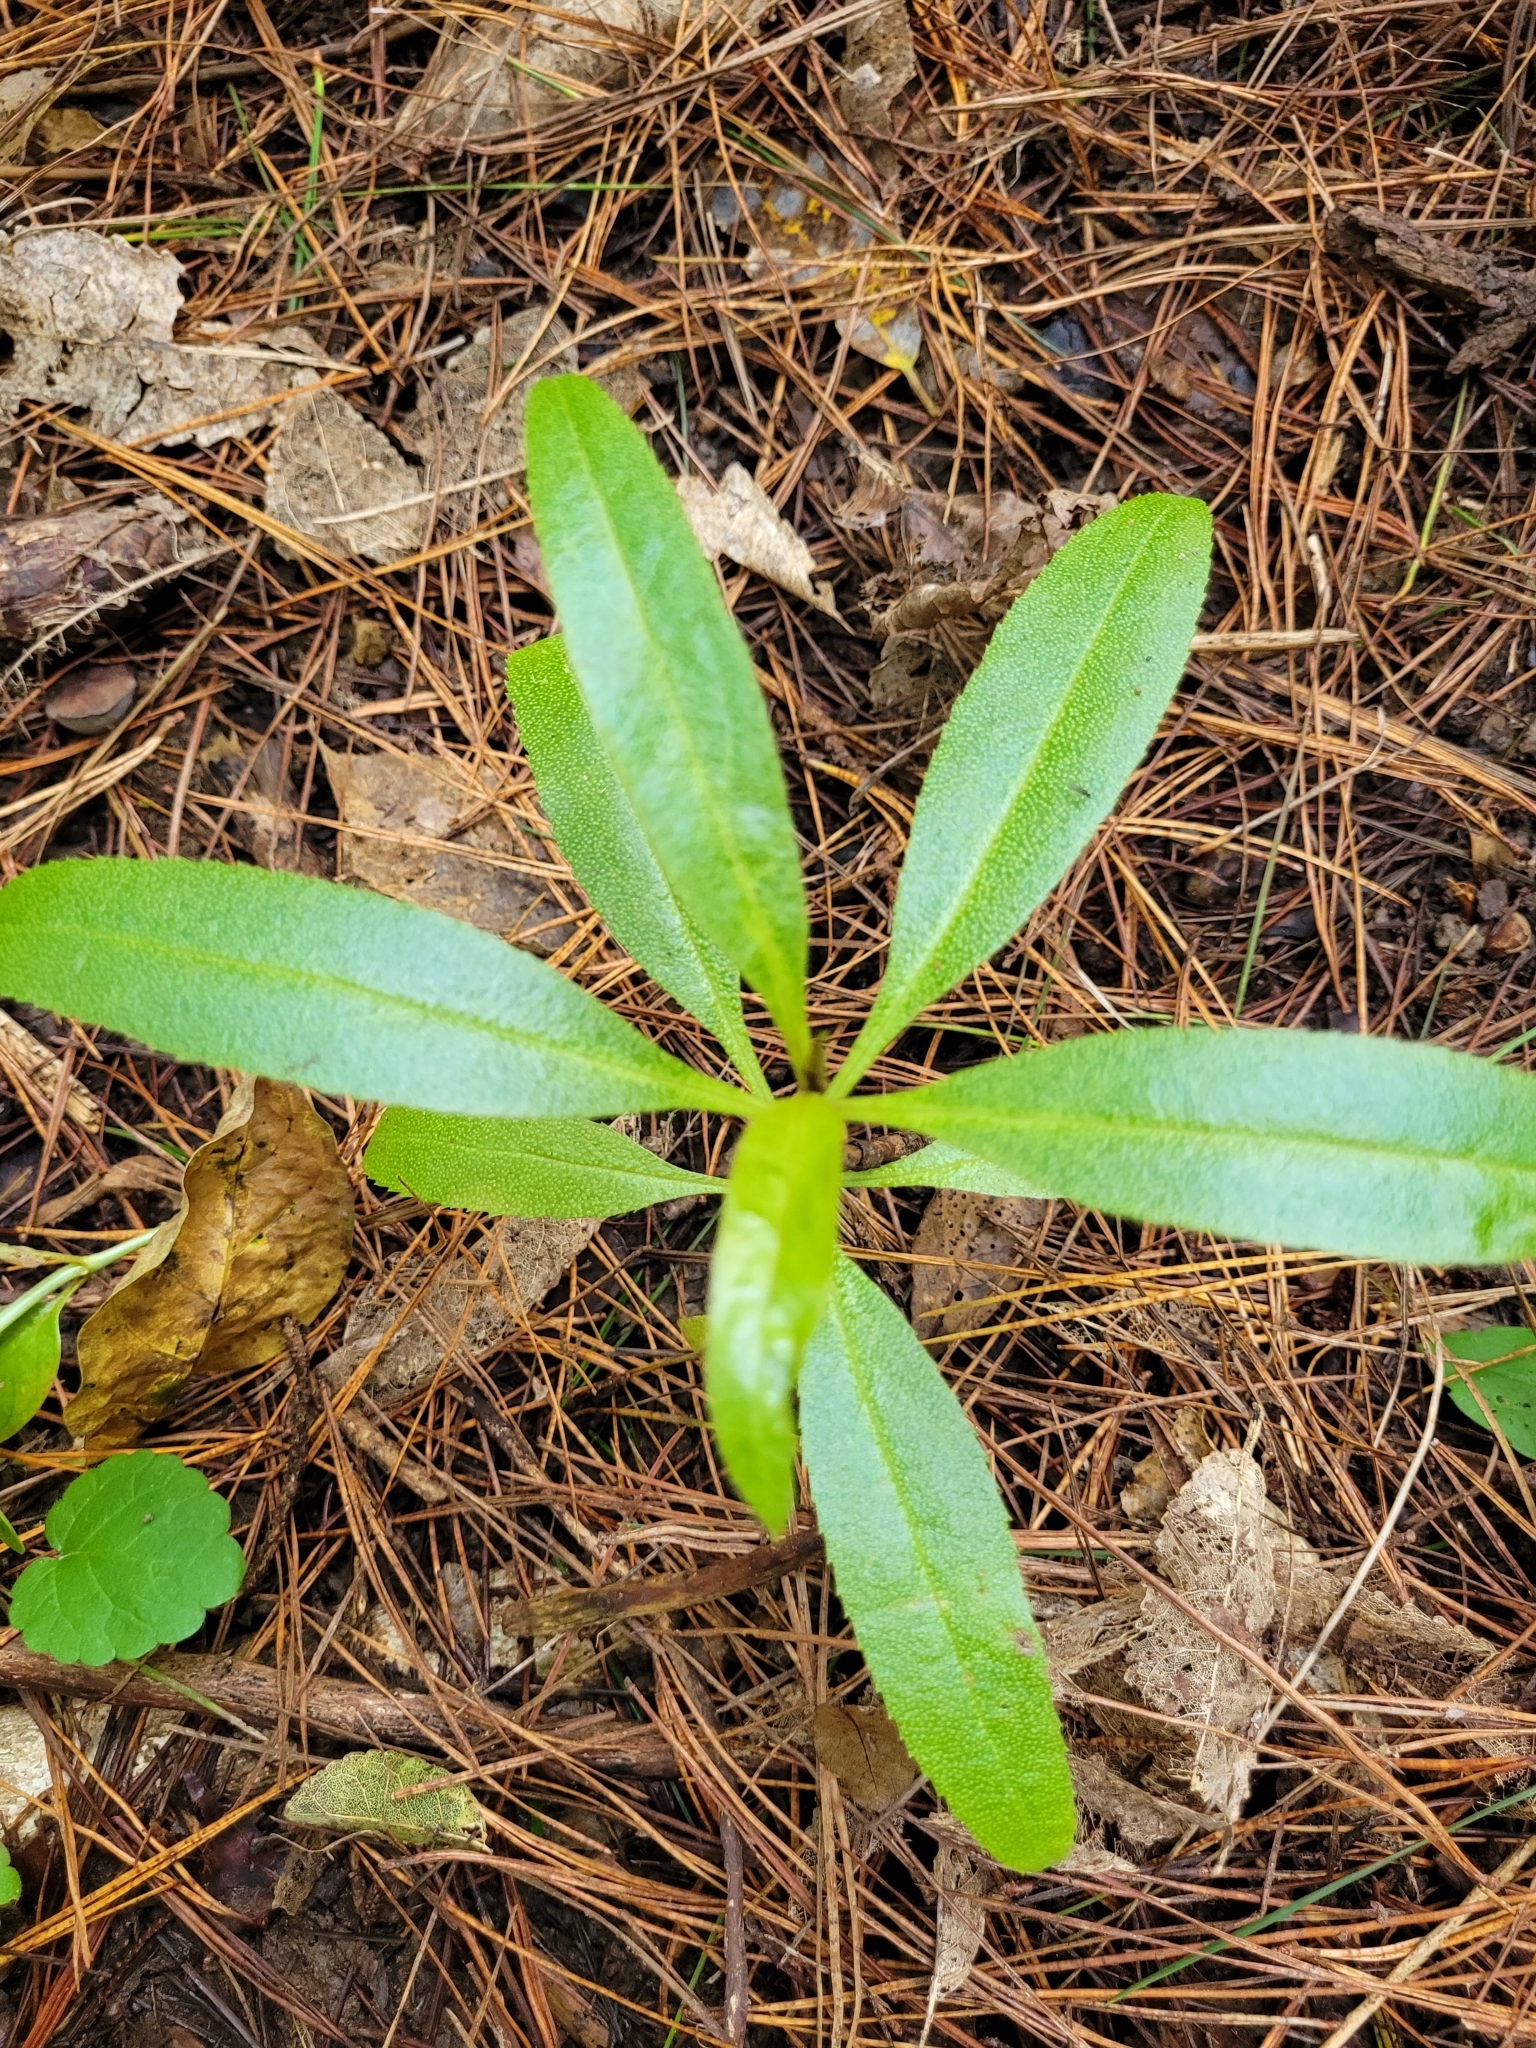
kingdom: Plantae
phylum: Tracheophyta
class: Magnoliopsida
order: Lamiales
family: Scrophulariaceae
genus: Myoporum
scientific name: Myoporum laetum
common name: Ngaio tree
